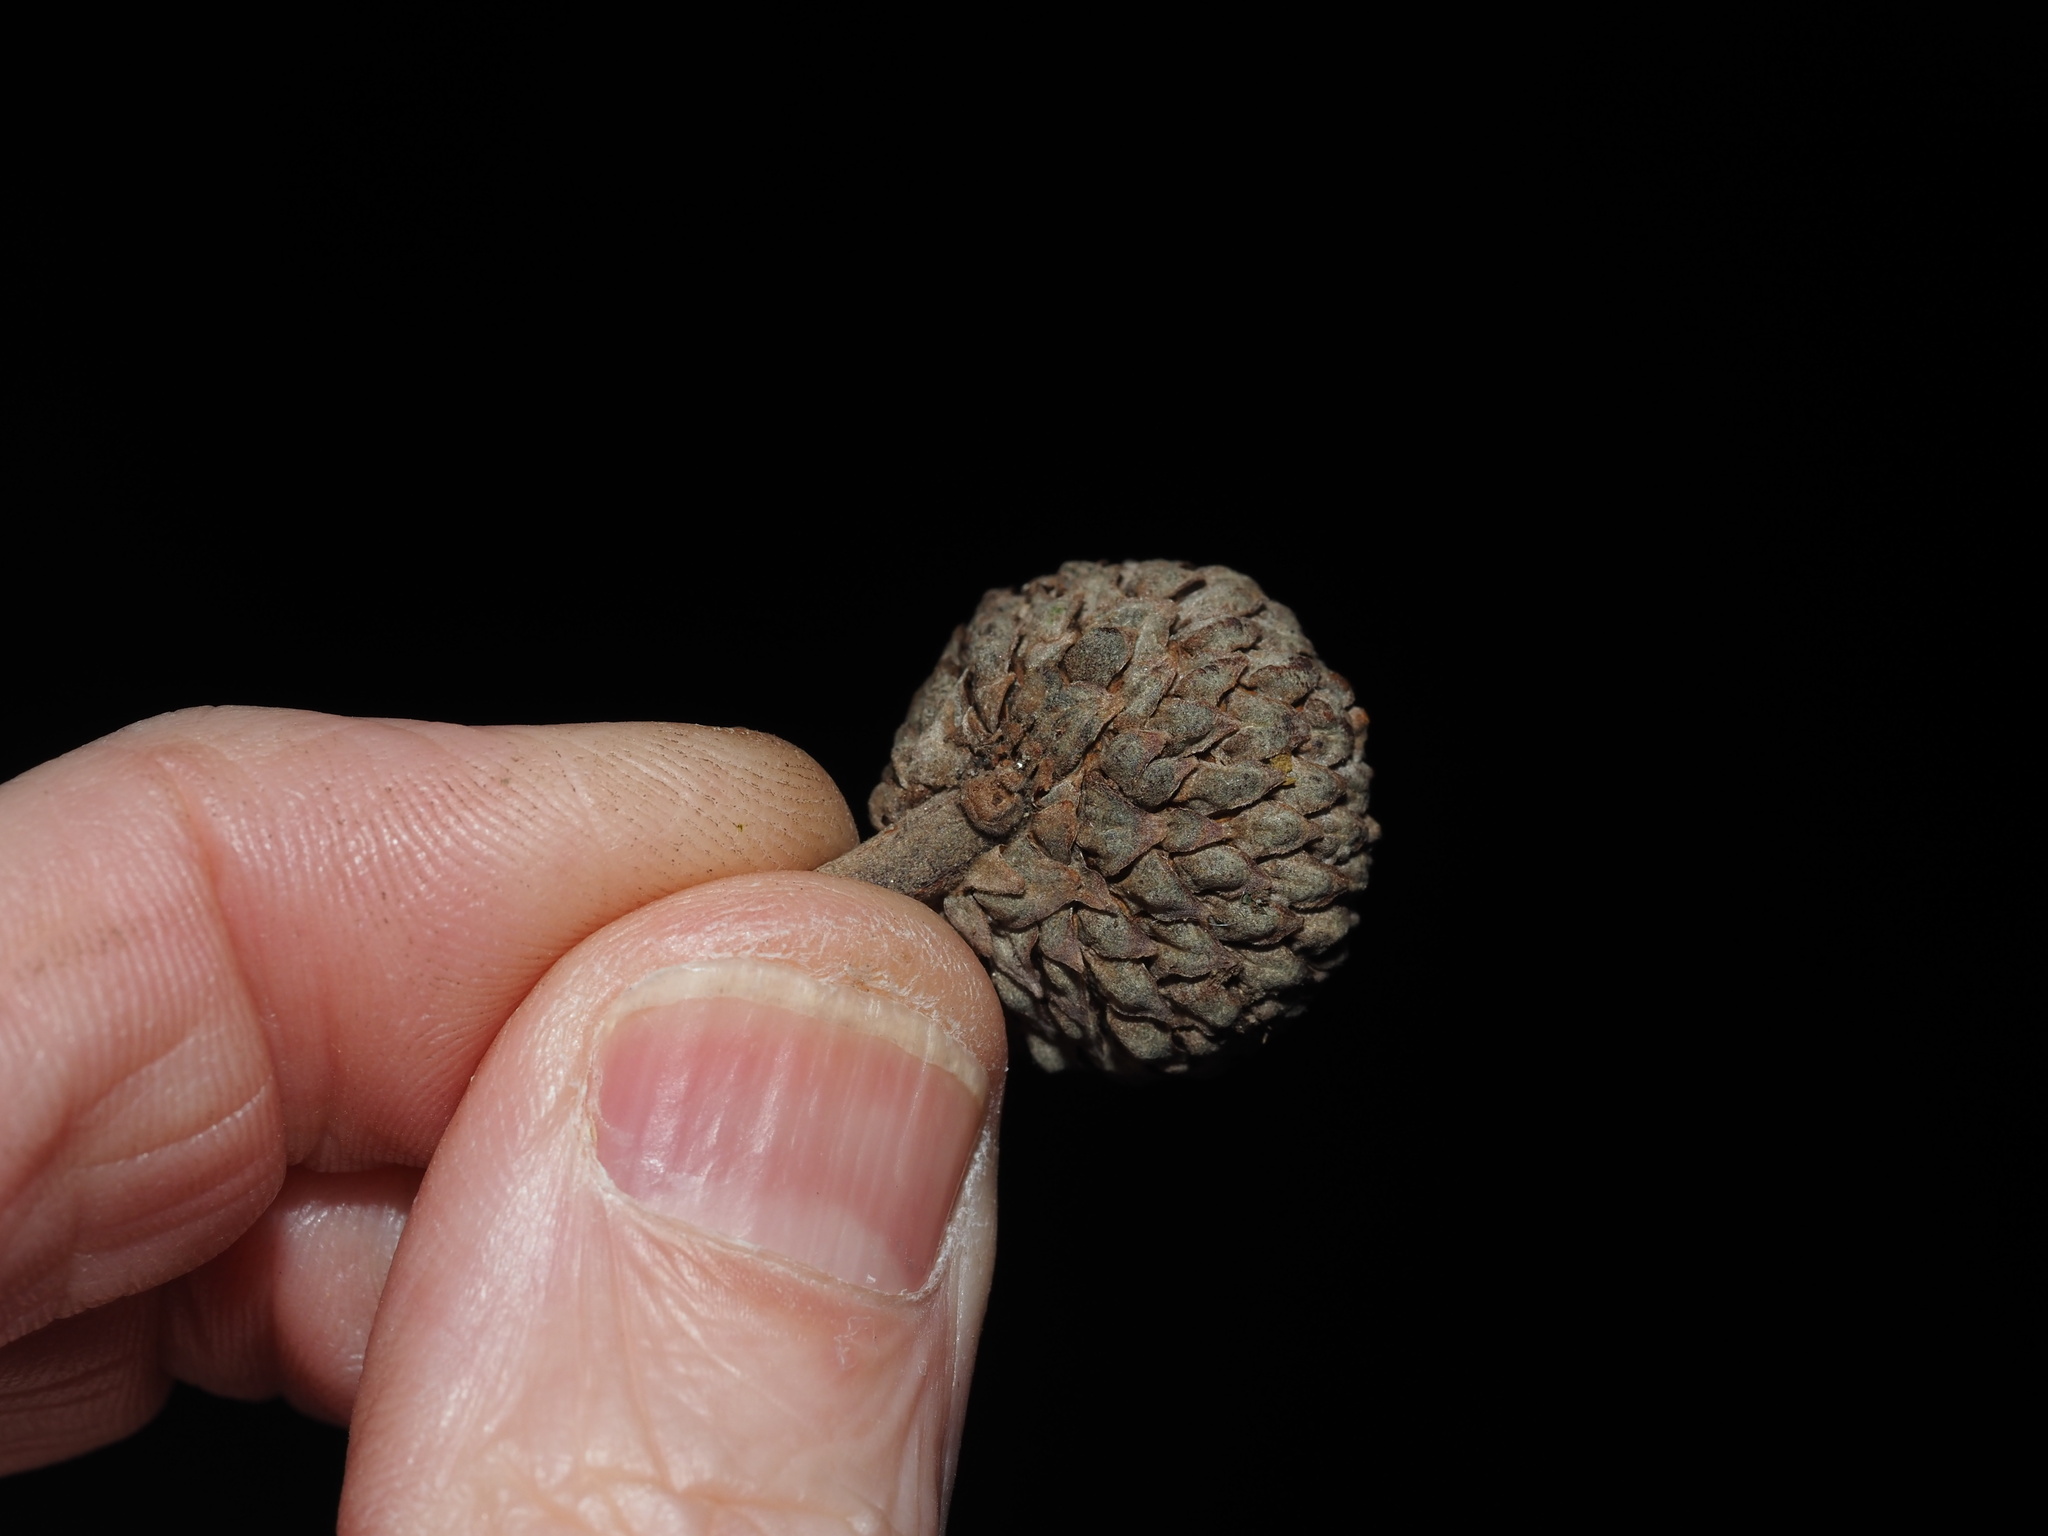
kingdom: Plantae
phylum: Tracheophyta
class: Magnoliopsida
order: Fagales
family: Fagaceae
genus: Quercus
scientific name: Quercus michauxii
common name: Swamp chestnut oak
